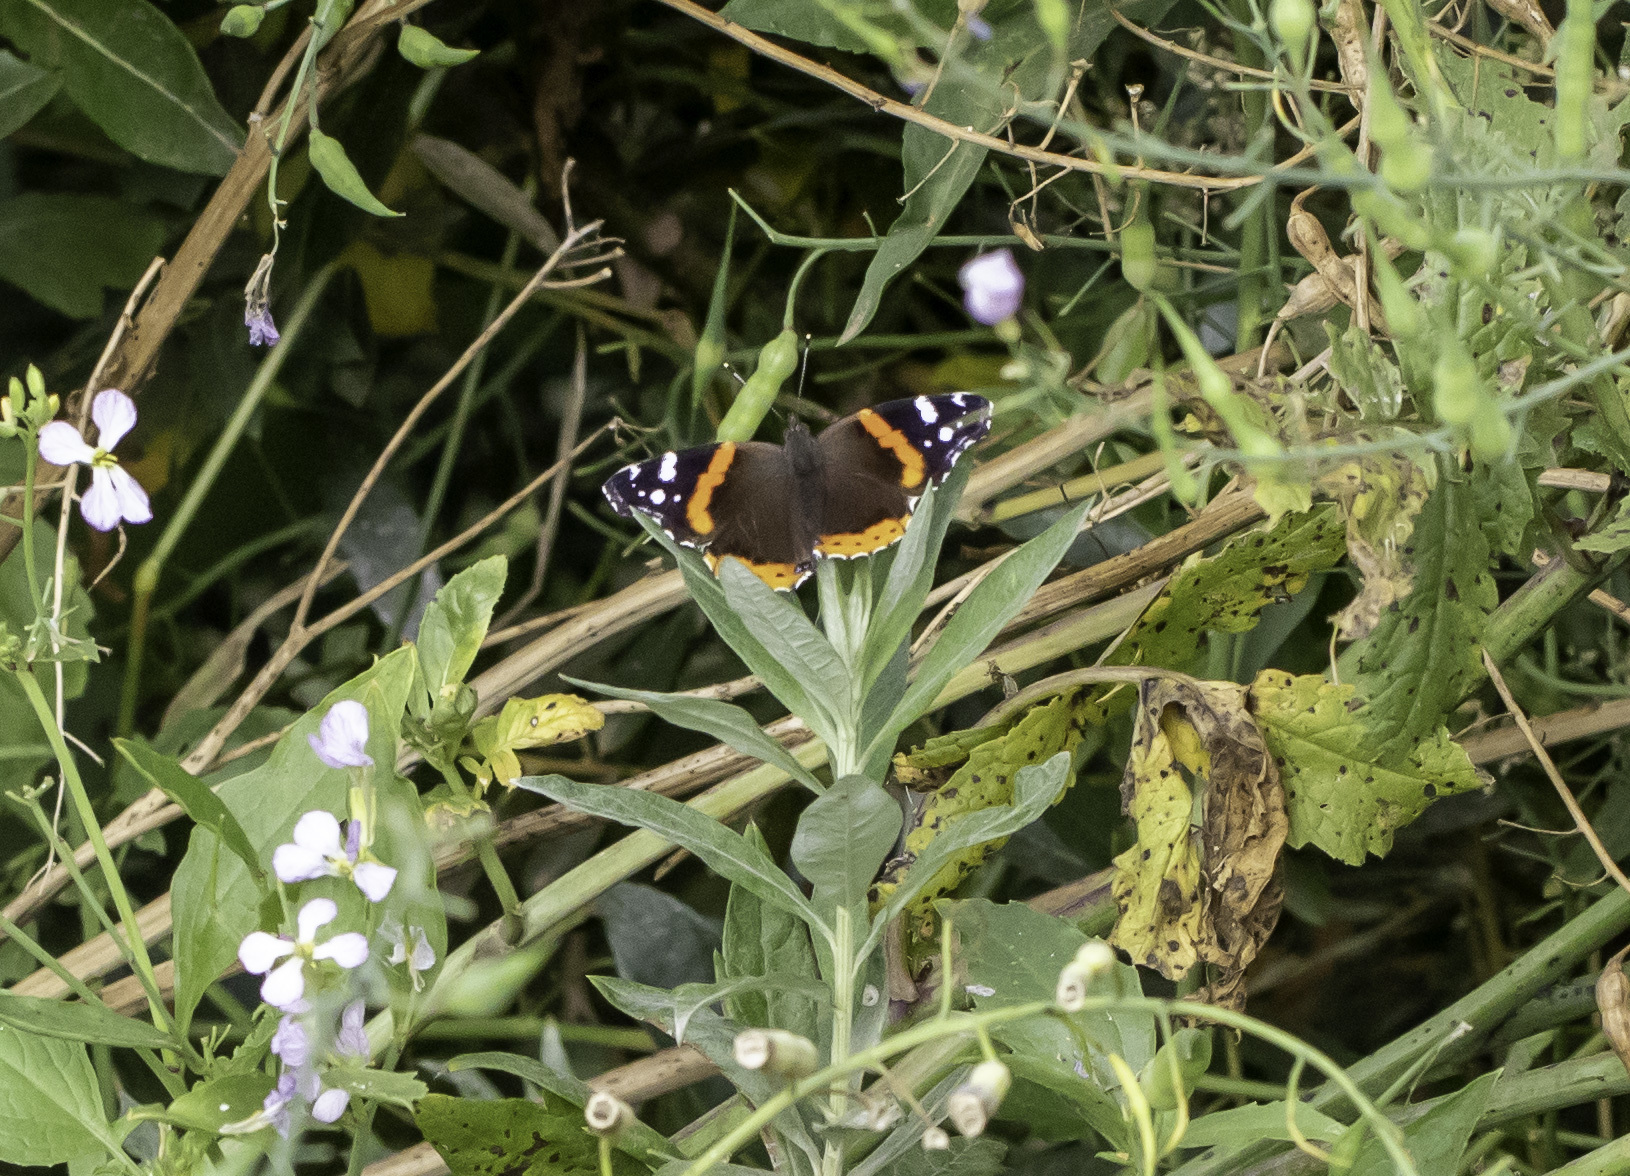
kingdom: Animalia
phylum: Arthropoda
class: Insecta
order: Lepidoptera
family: Nymphalidae
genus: Vanessa
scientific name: Vanessa atalanta
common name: Red admiral
